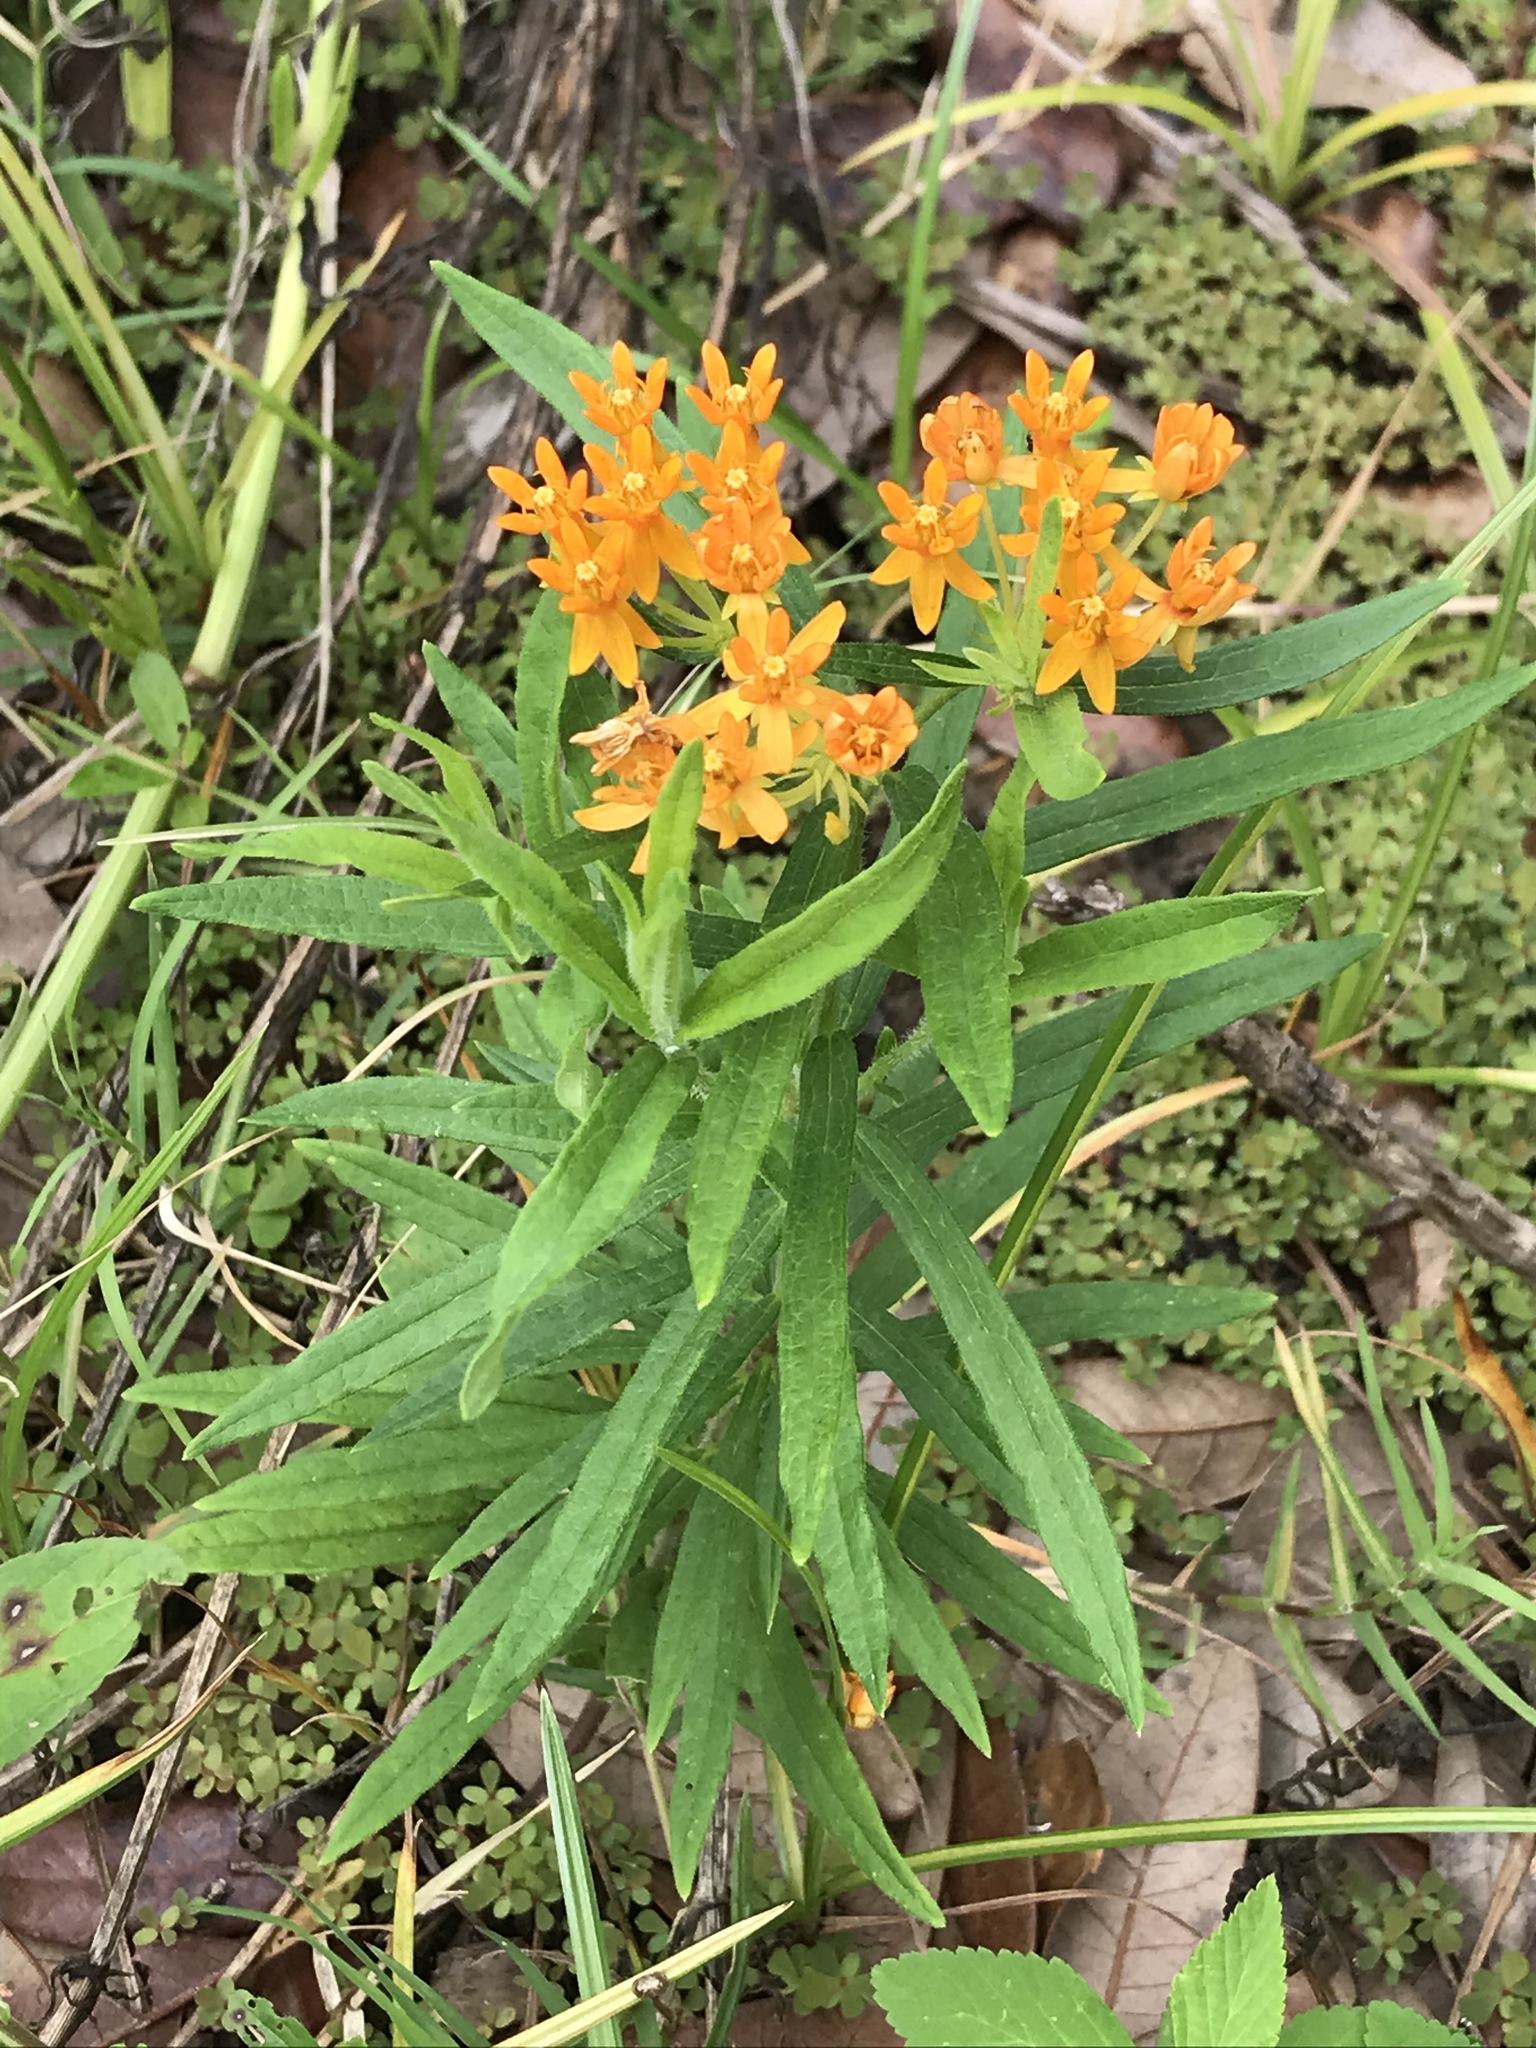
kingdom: Plantae
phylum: Tracheophyta
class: Magnoliopsida
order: Gentianales
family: Apocynaceae
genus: Asclepias
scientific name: Asclepias tuberosa
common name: Butterfly milkweed
